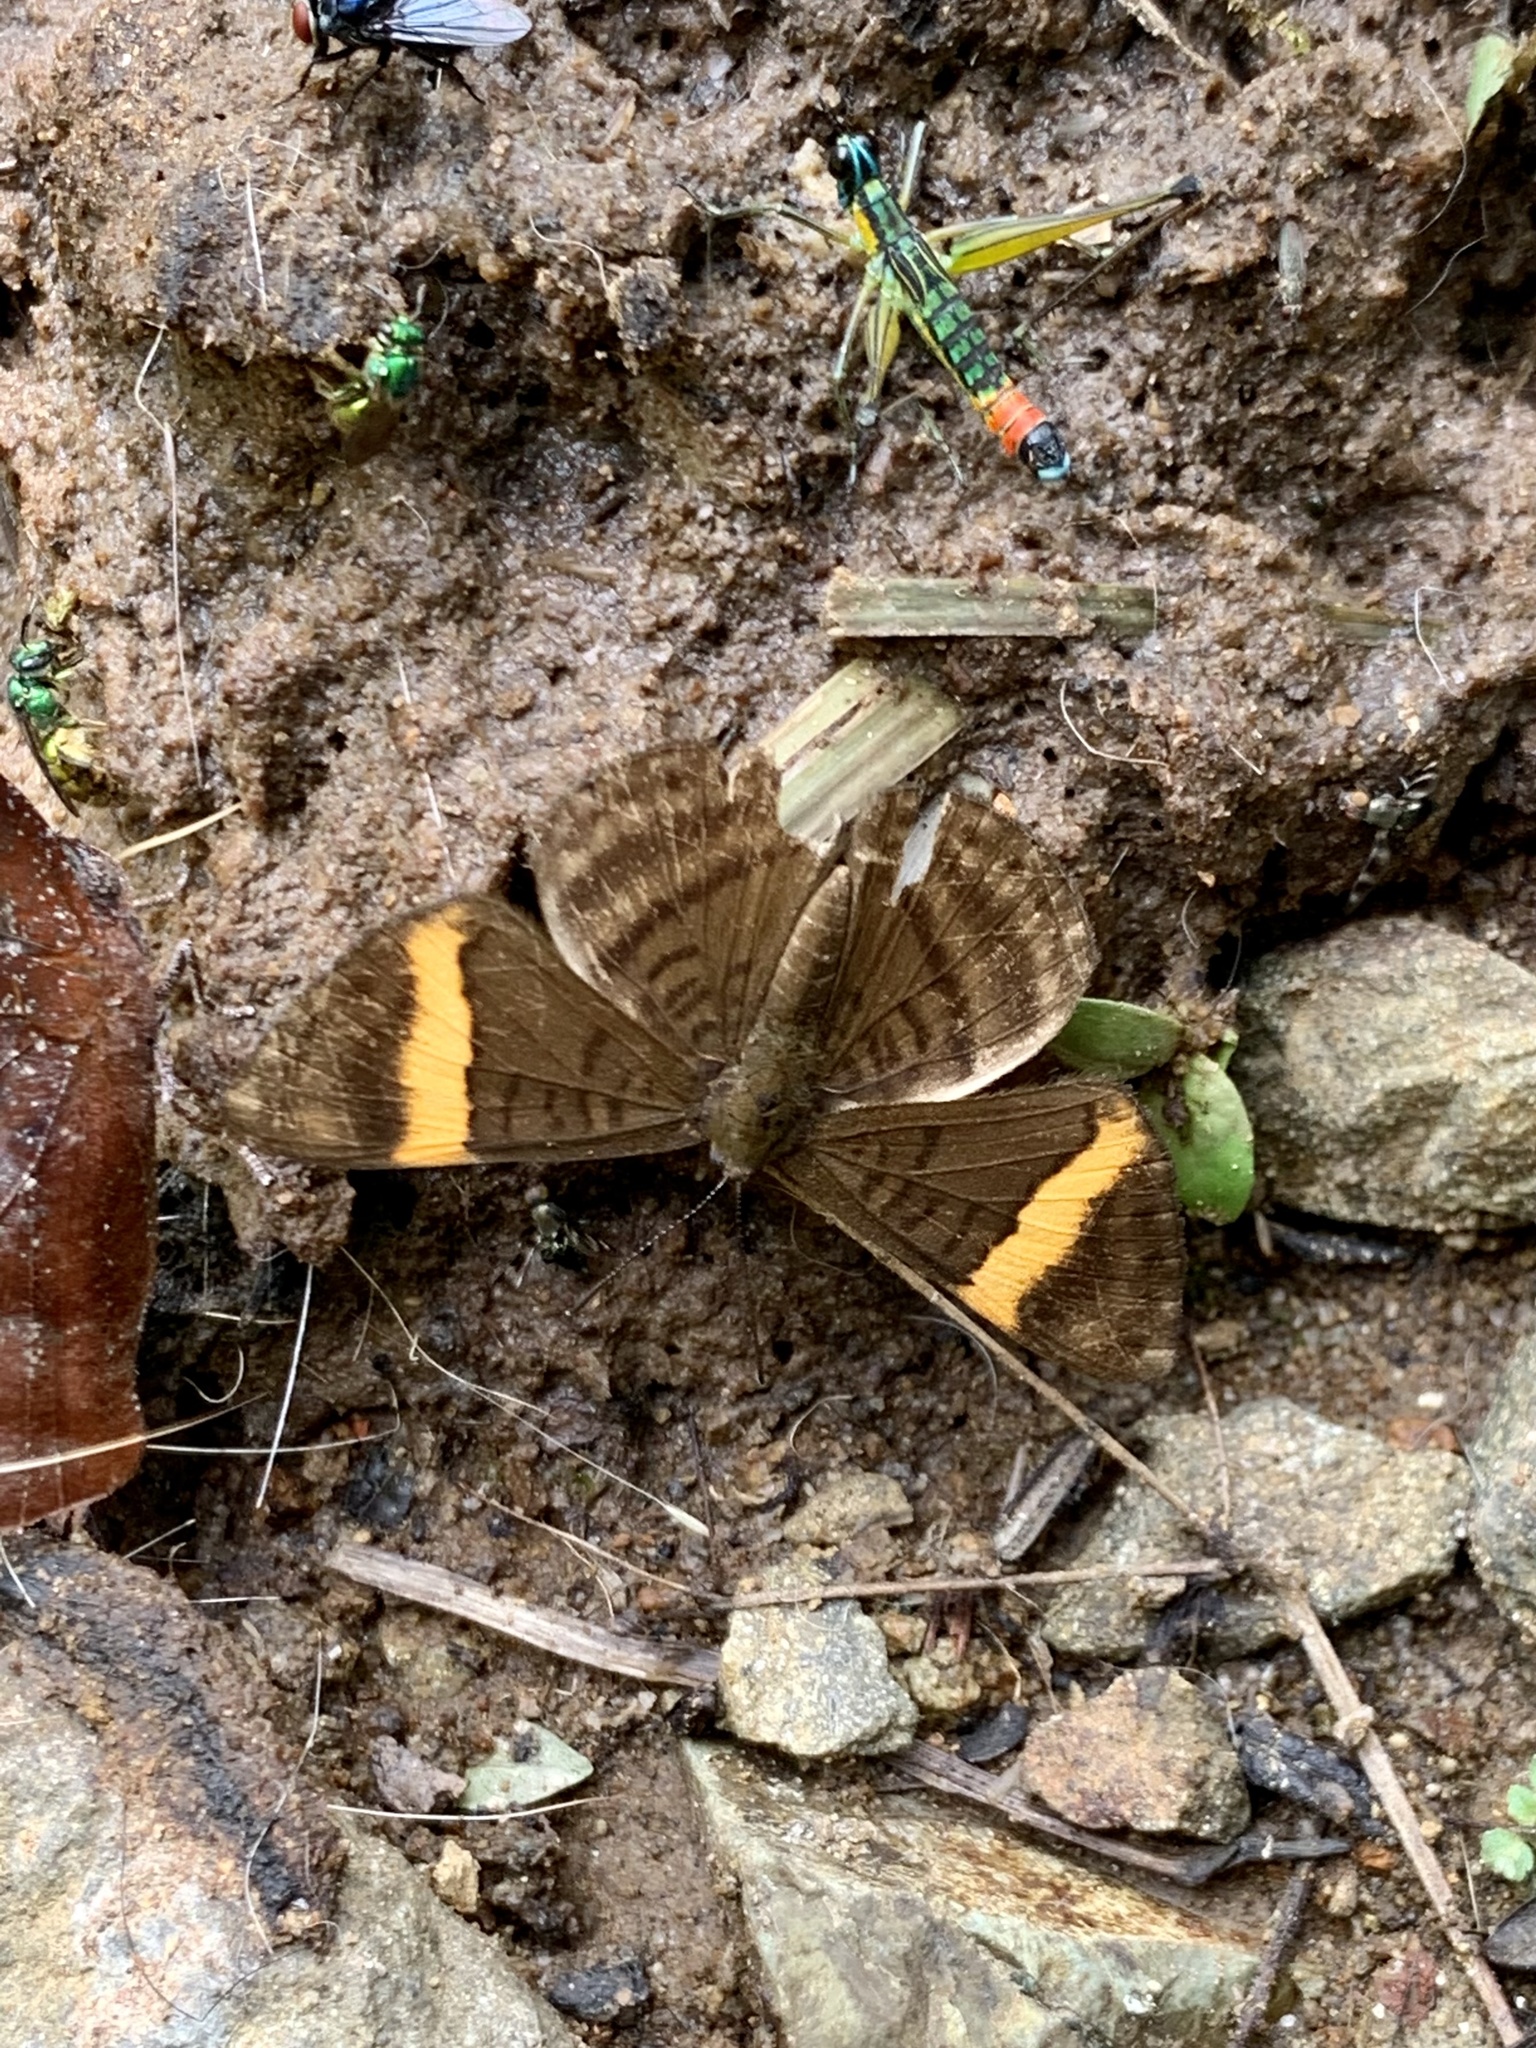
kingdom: Animalia
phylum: Arthropoda
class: Insecta
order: Lepidoptera
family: Lycaenidae
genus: Emesis
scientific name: Emesis cypria
